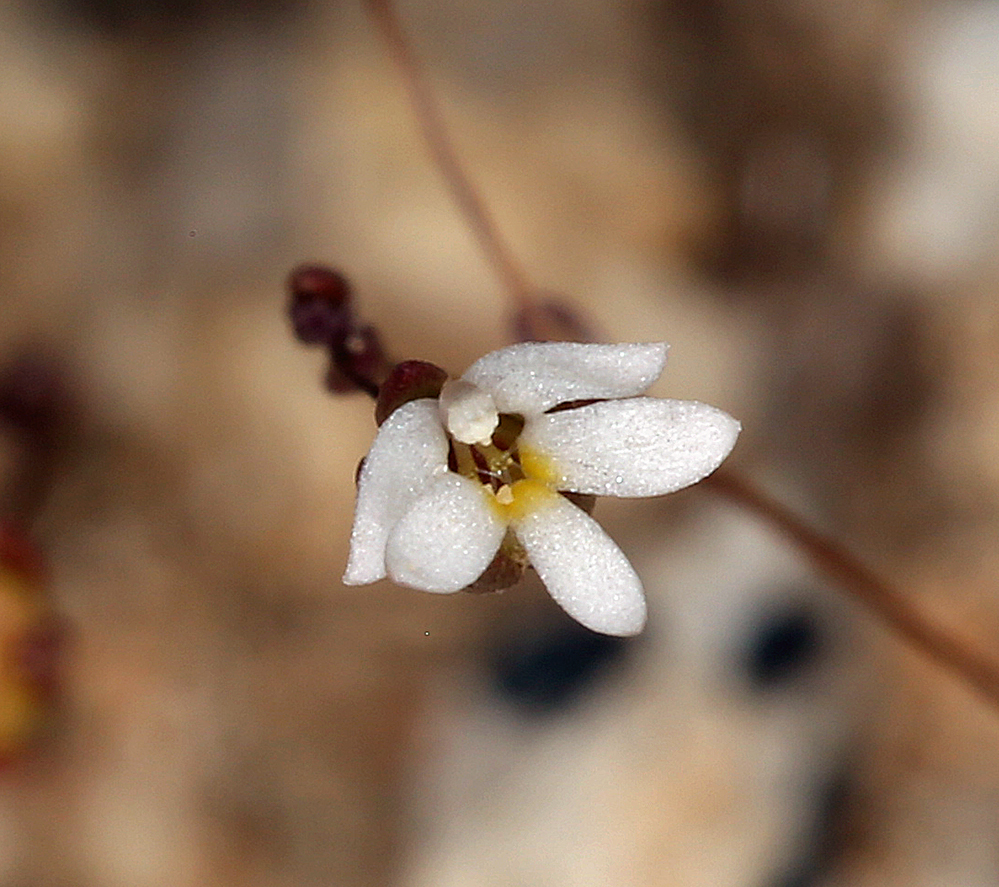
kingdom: Plantae
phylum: Tracheophyta
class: Magnoliopsida
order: Asterales
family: Campanulaceae
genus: Nemacladus
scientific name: Nemacladus sigmoideus
